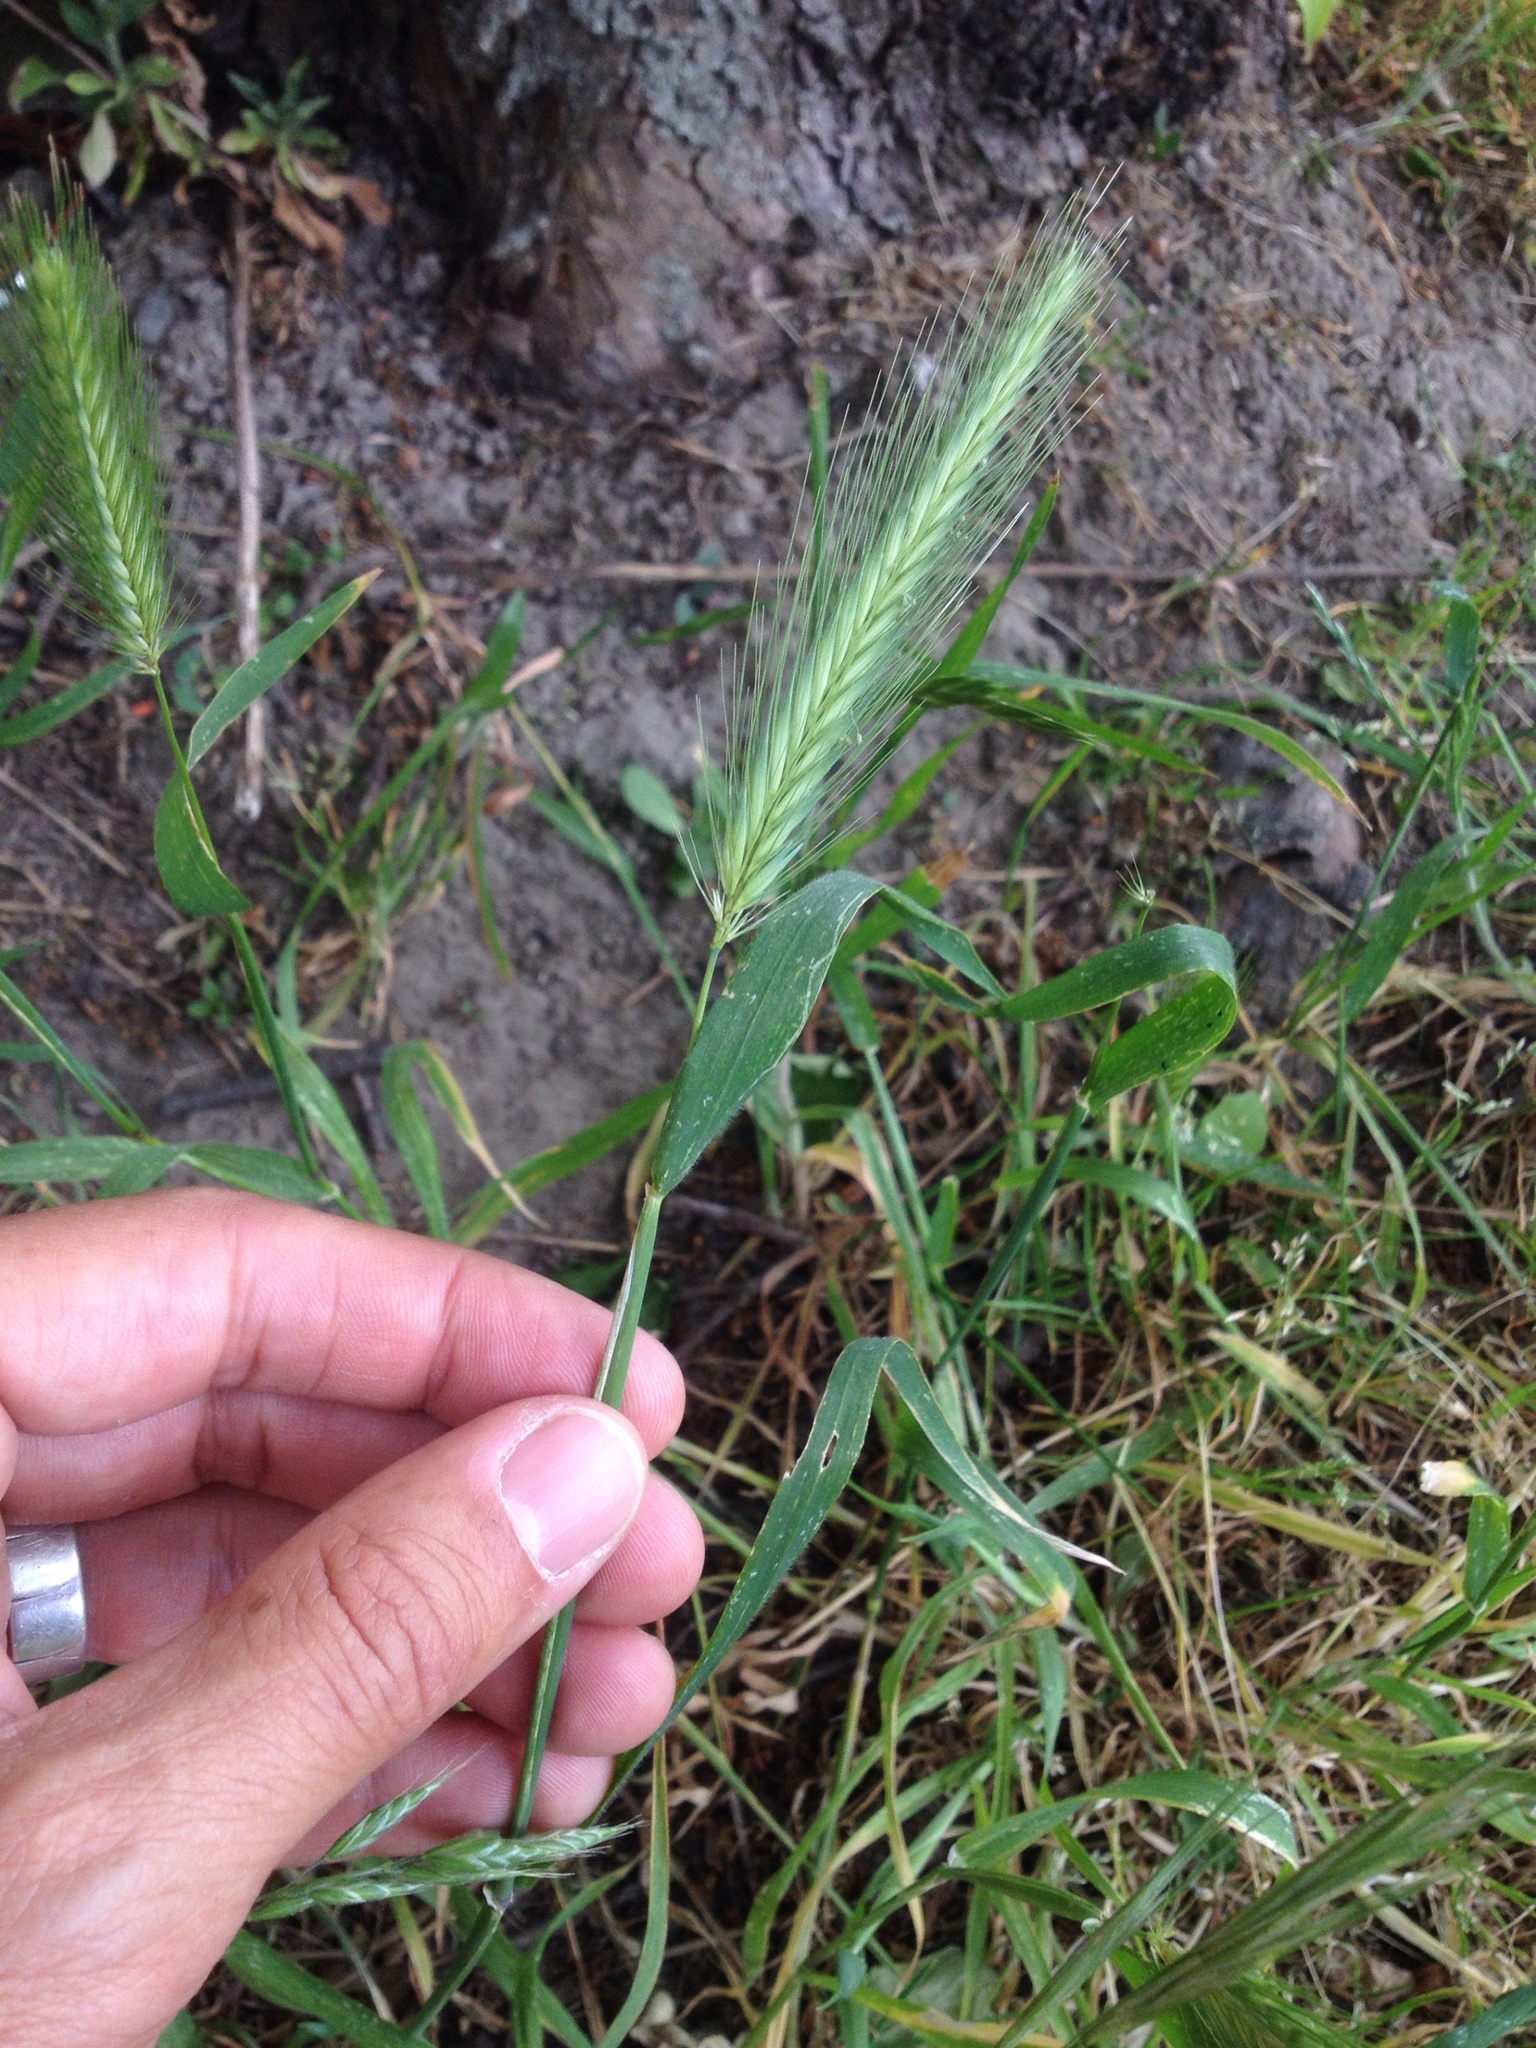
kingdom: Plantae
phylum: Tracheophyta
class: Liliopsida
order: Poales
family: Poaceae
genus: Hordeum
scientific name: Hordeum murinum
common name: Wall barley
